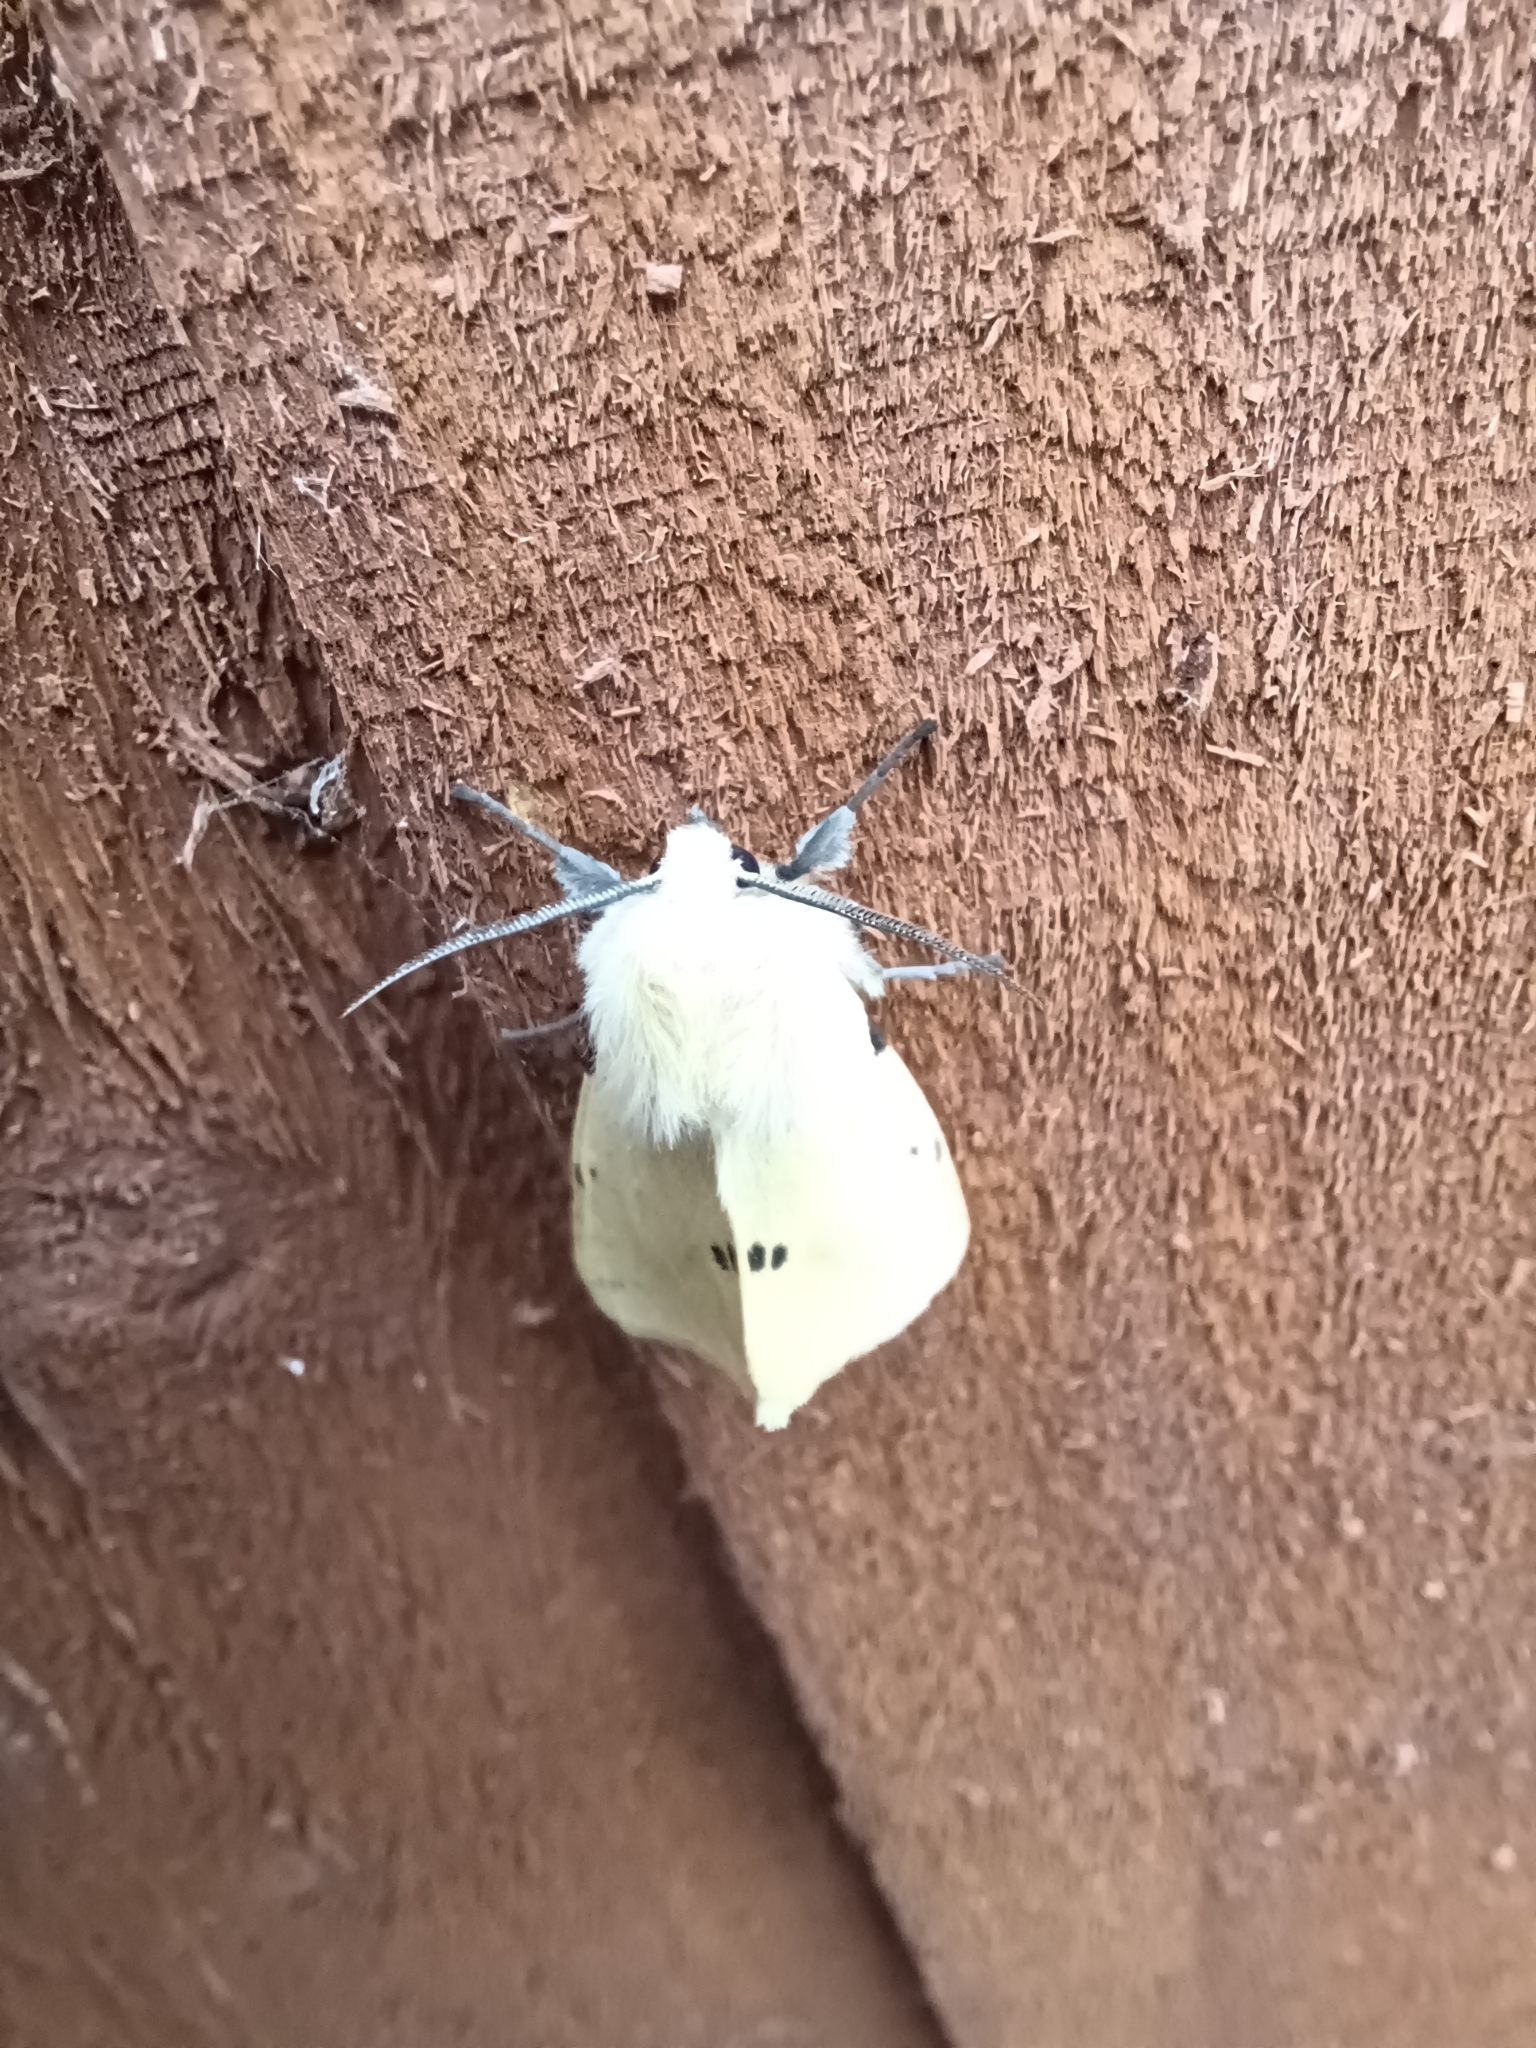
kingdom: Animalia
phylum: Arthropoda
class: Insecta
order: Lepidoptera
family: Erebidae
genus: Spilarctia
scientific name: Spilarctia lutea
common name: Buff ermine
